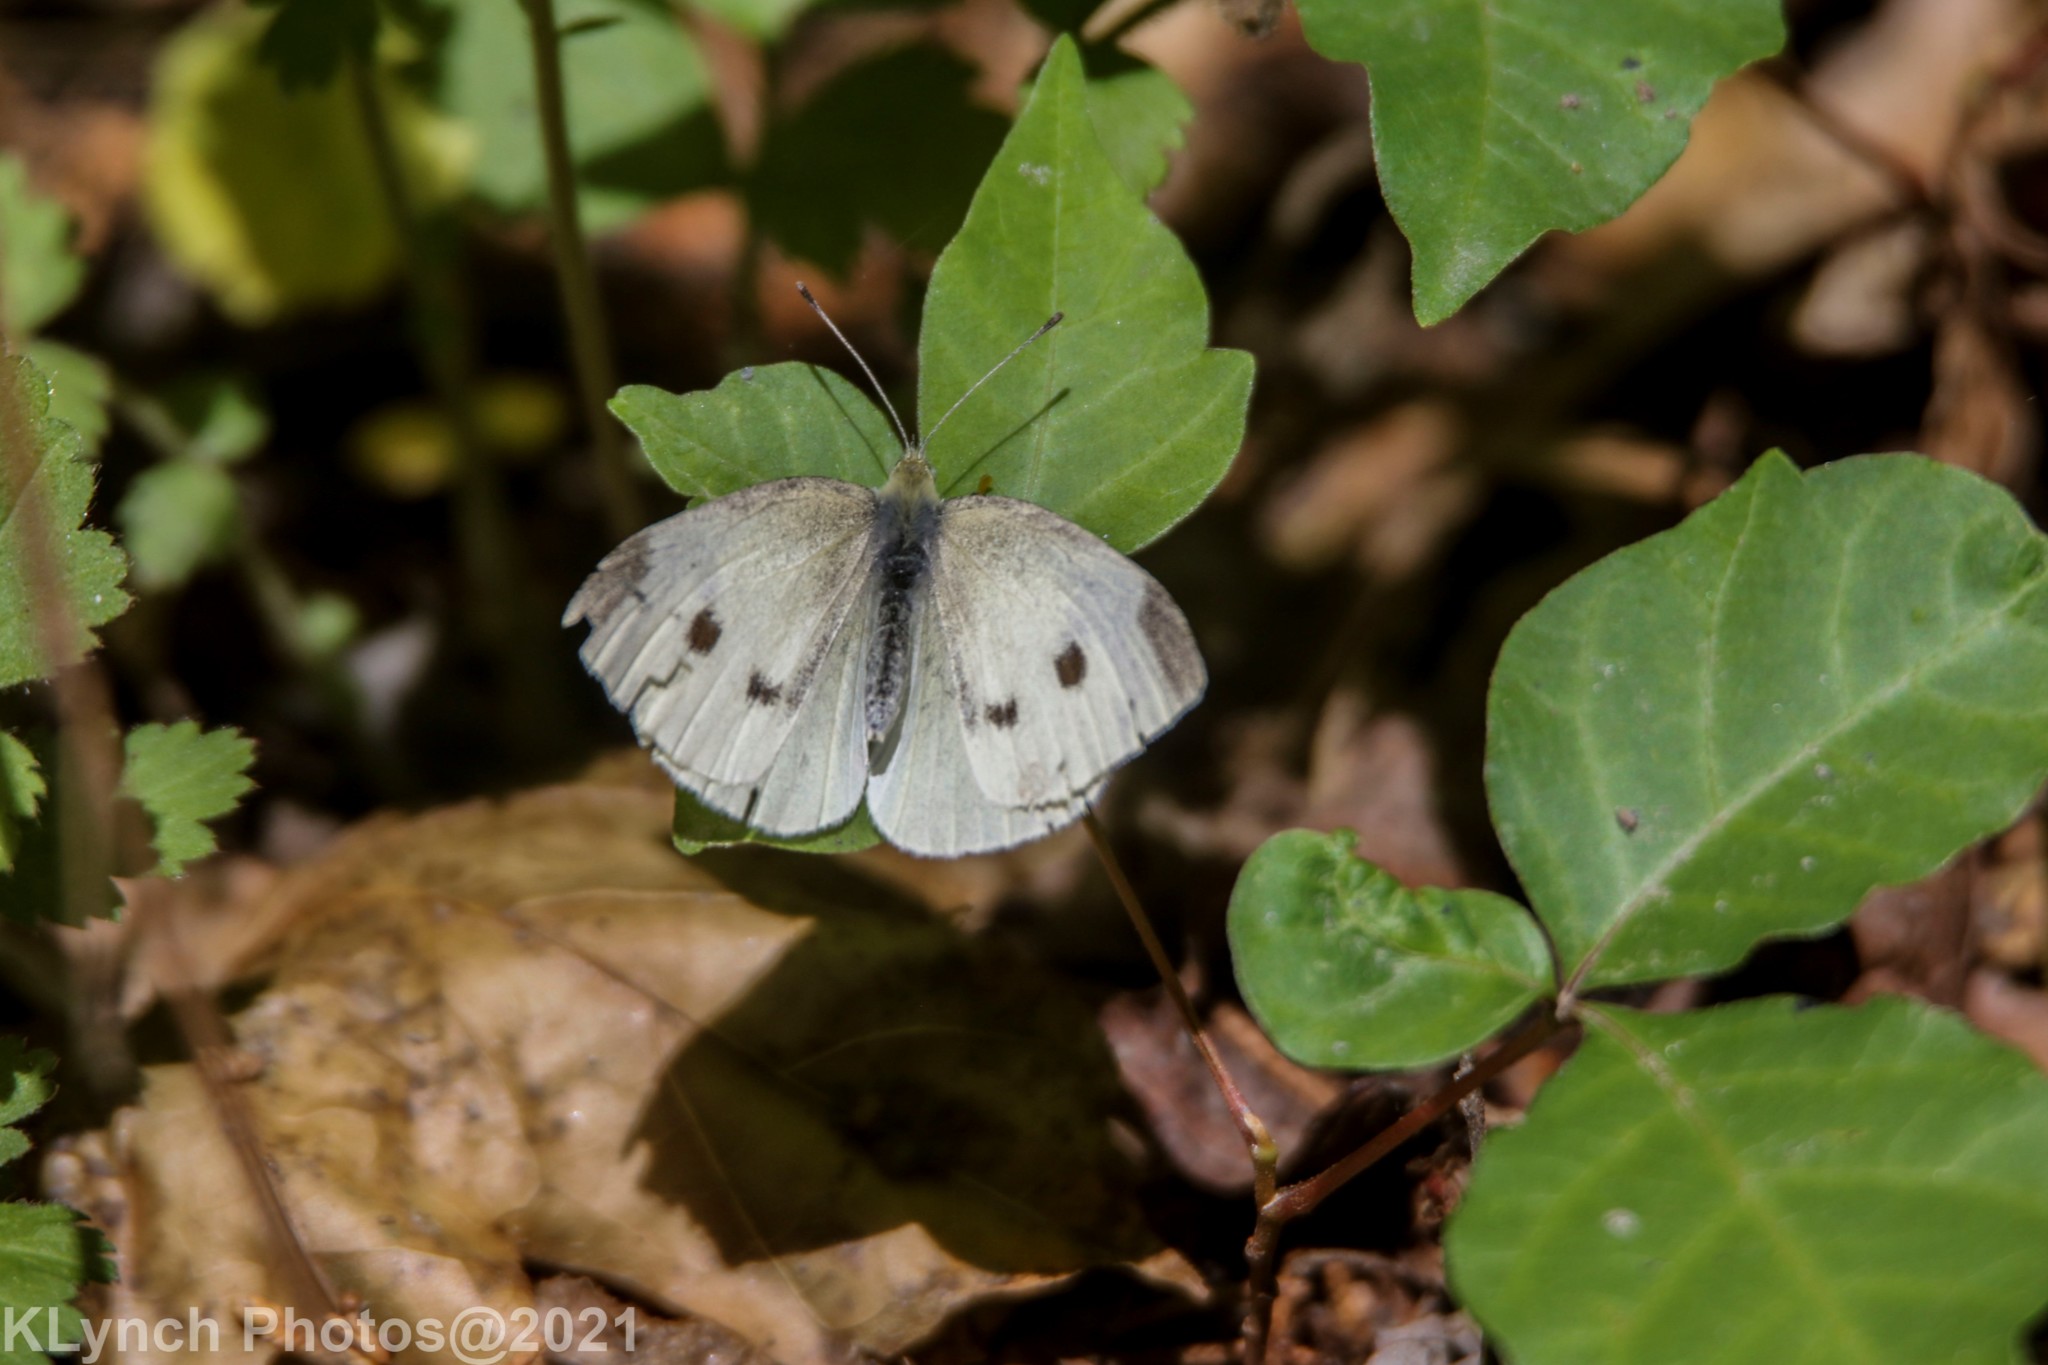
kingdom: Animalia
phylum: Arthropoda
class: Insecta
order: Lepidoptera
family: Pieridae
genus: Pieris
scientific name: Pieris rapae
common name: Small white
